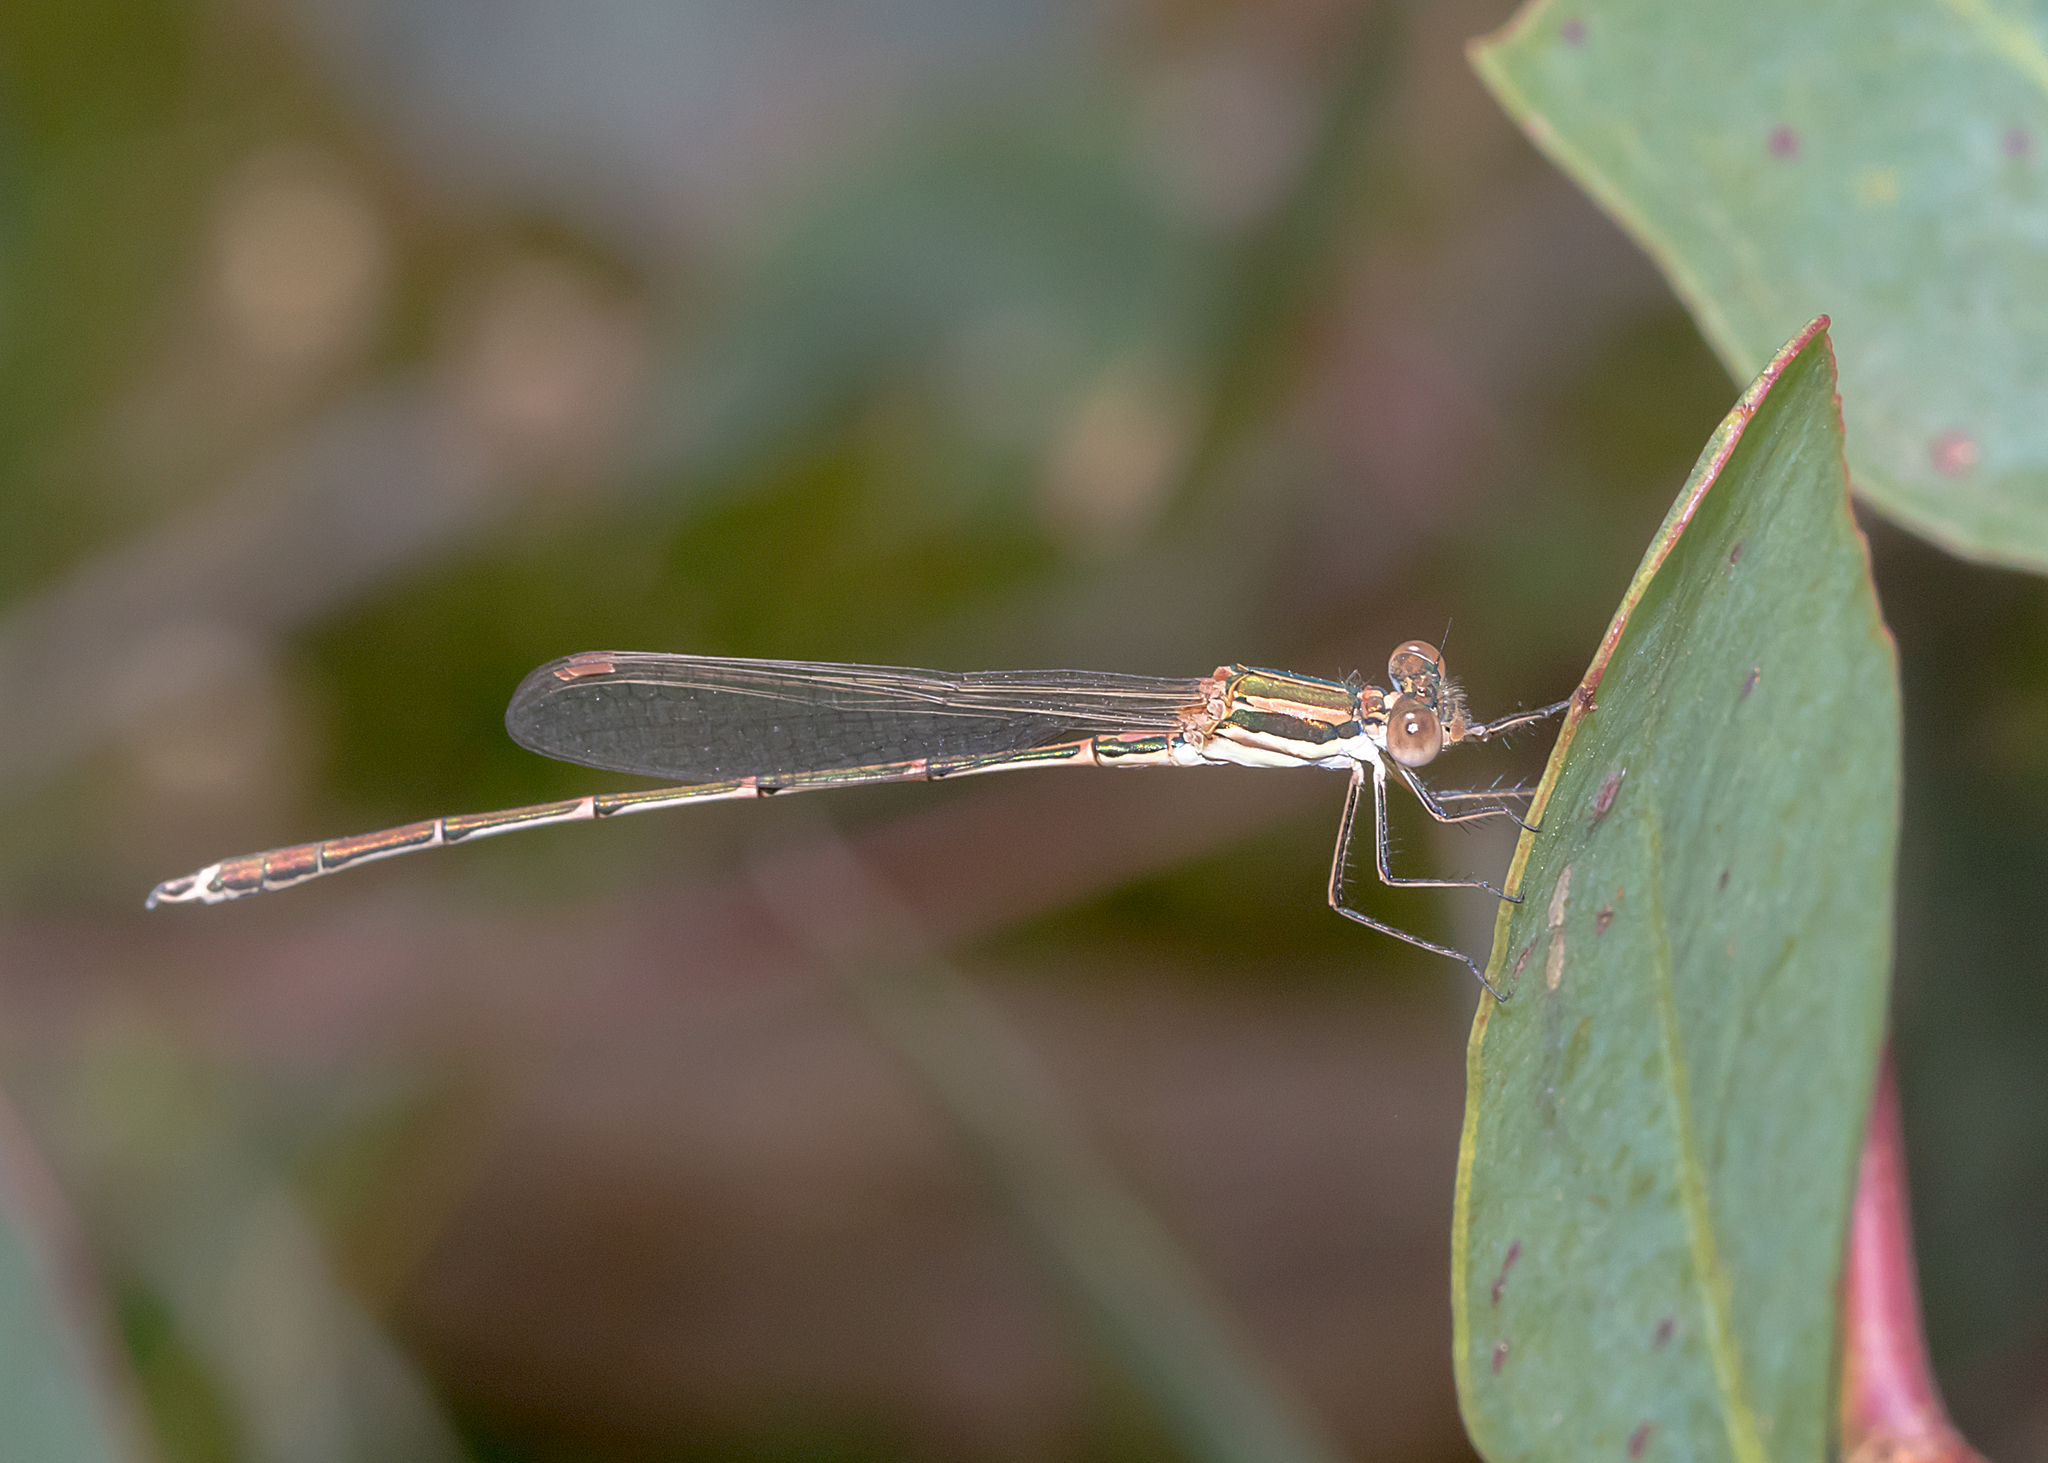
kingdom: Animalia
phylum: Arthropoda
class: Insecta
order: Odonata
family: Lestidae
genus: Austrolestes
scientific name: Austrolestes analis
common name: Slender ringtail
